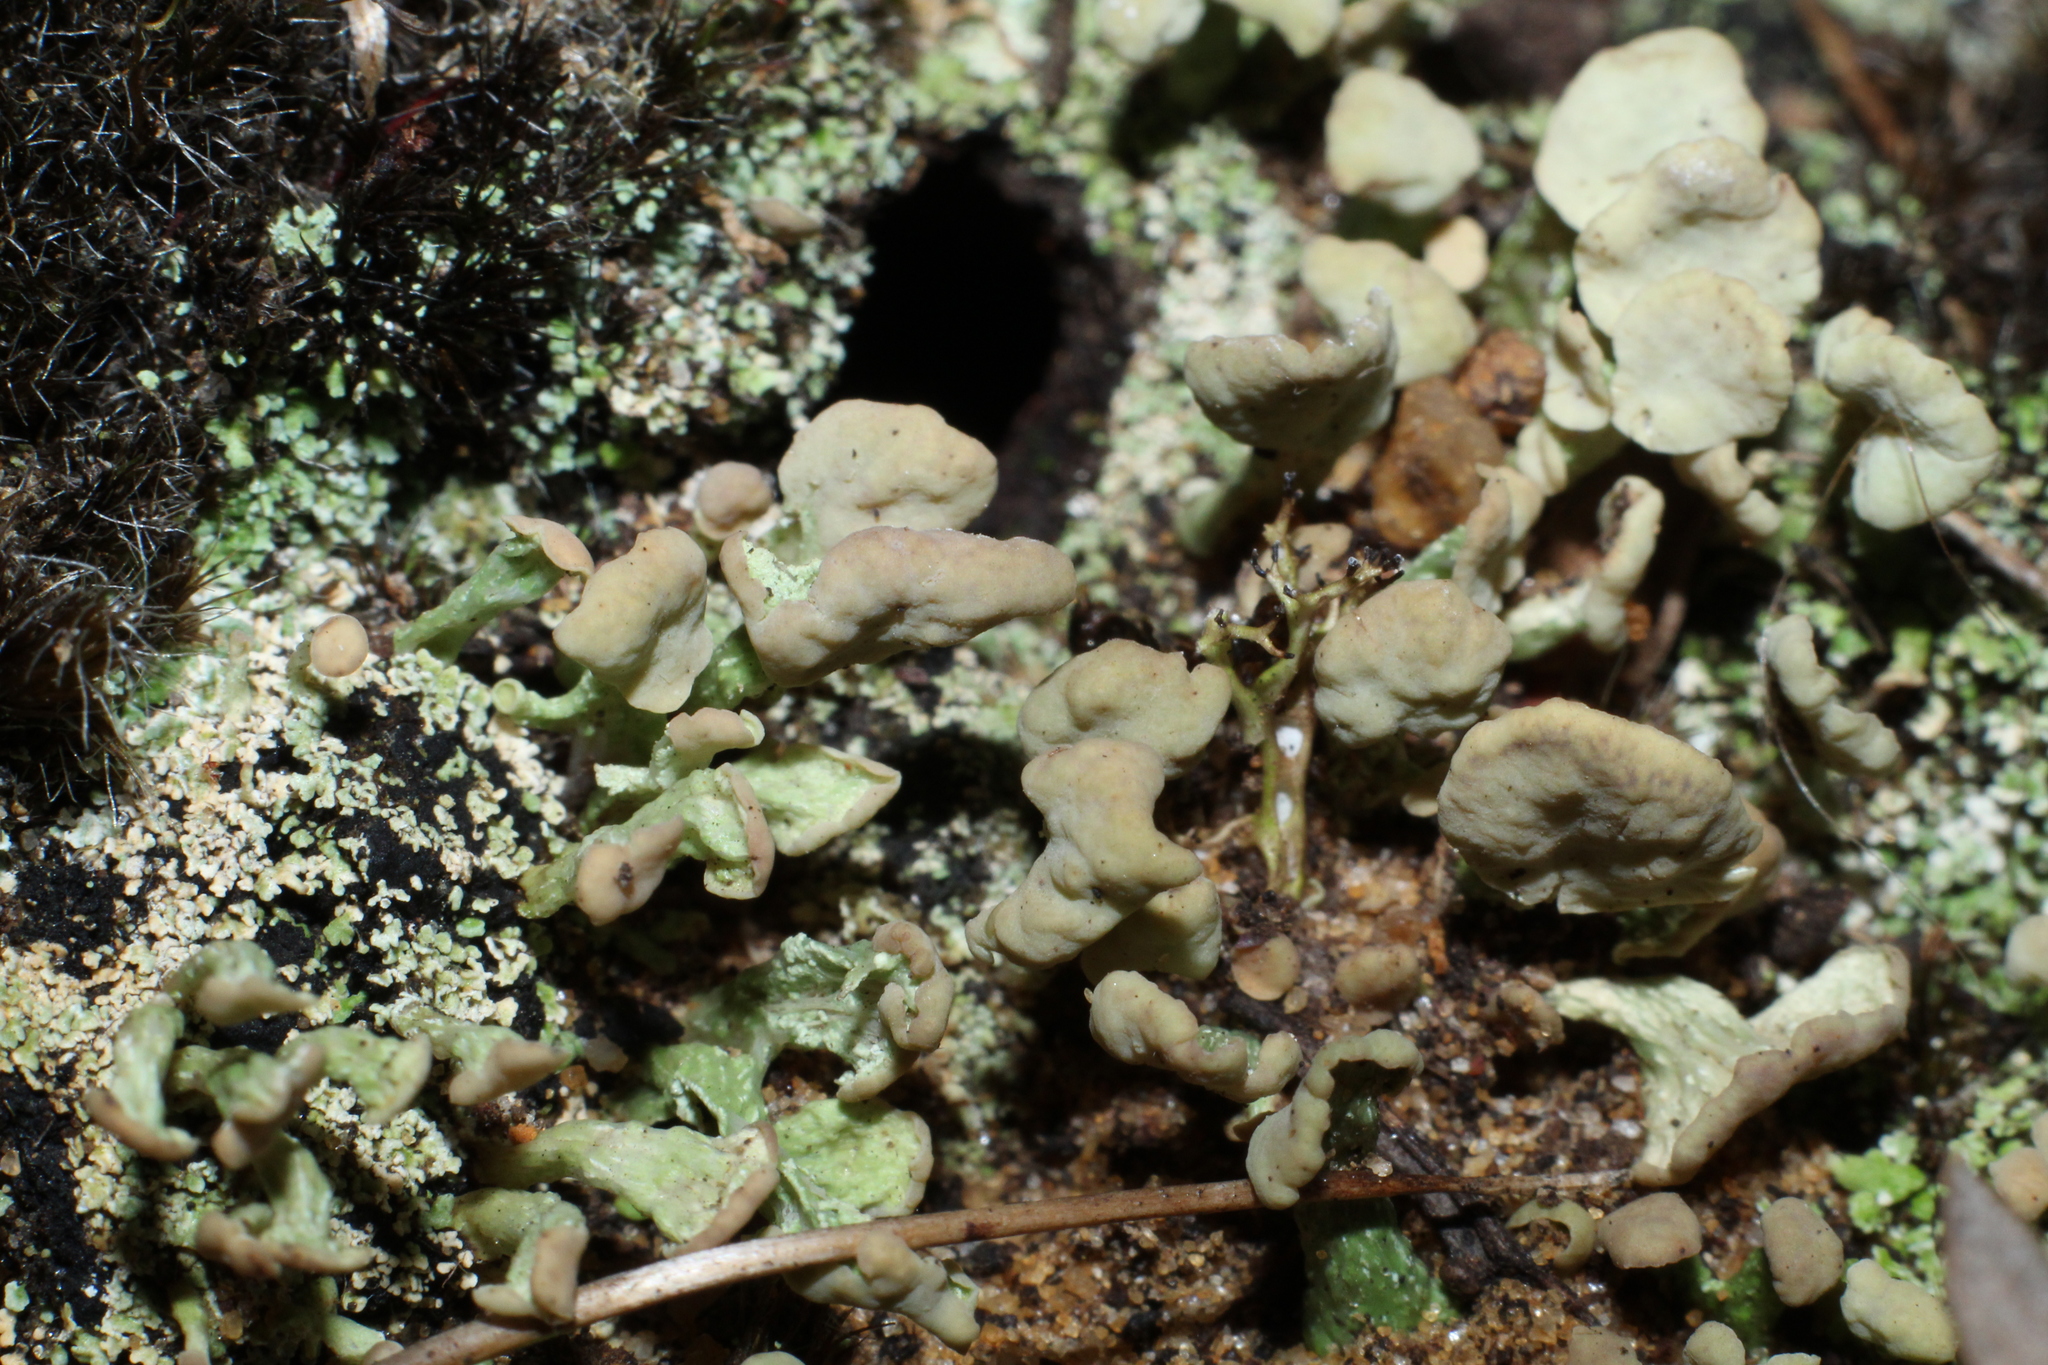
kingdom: Fungi
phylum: Ascomycota
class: Lecanoromycetes
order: Lecanorales
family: Cladoniaceae
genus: Thysanothecium
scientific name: Thysanothecium scutellatum
